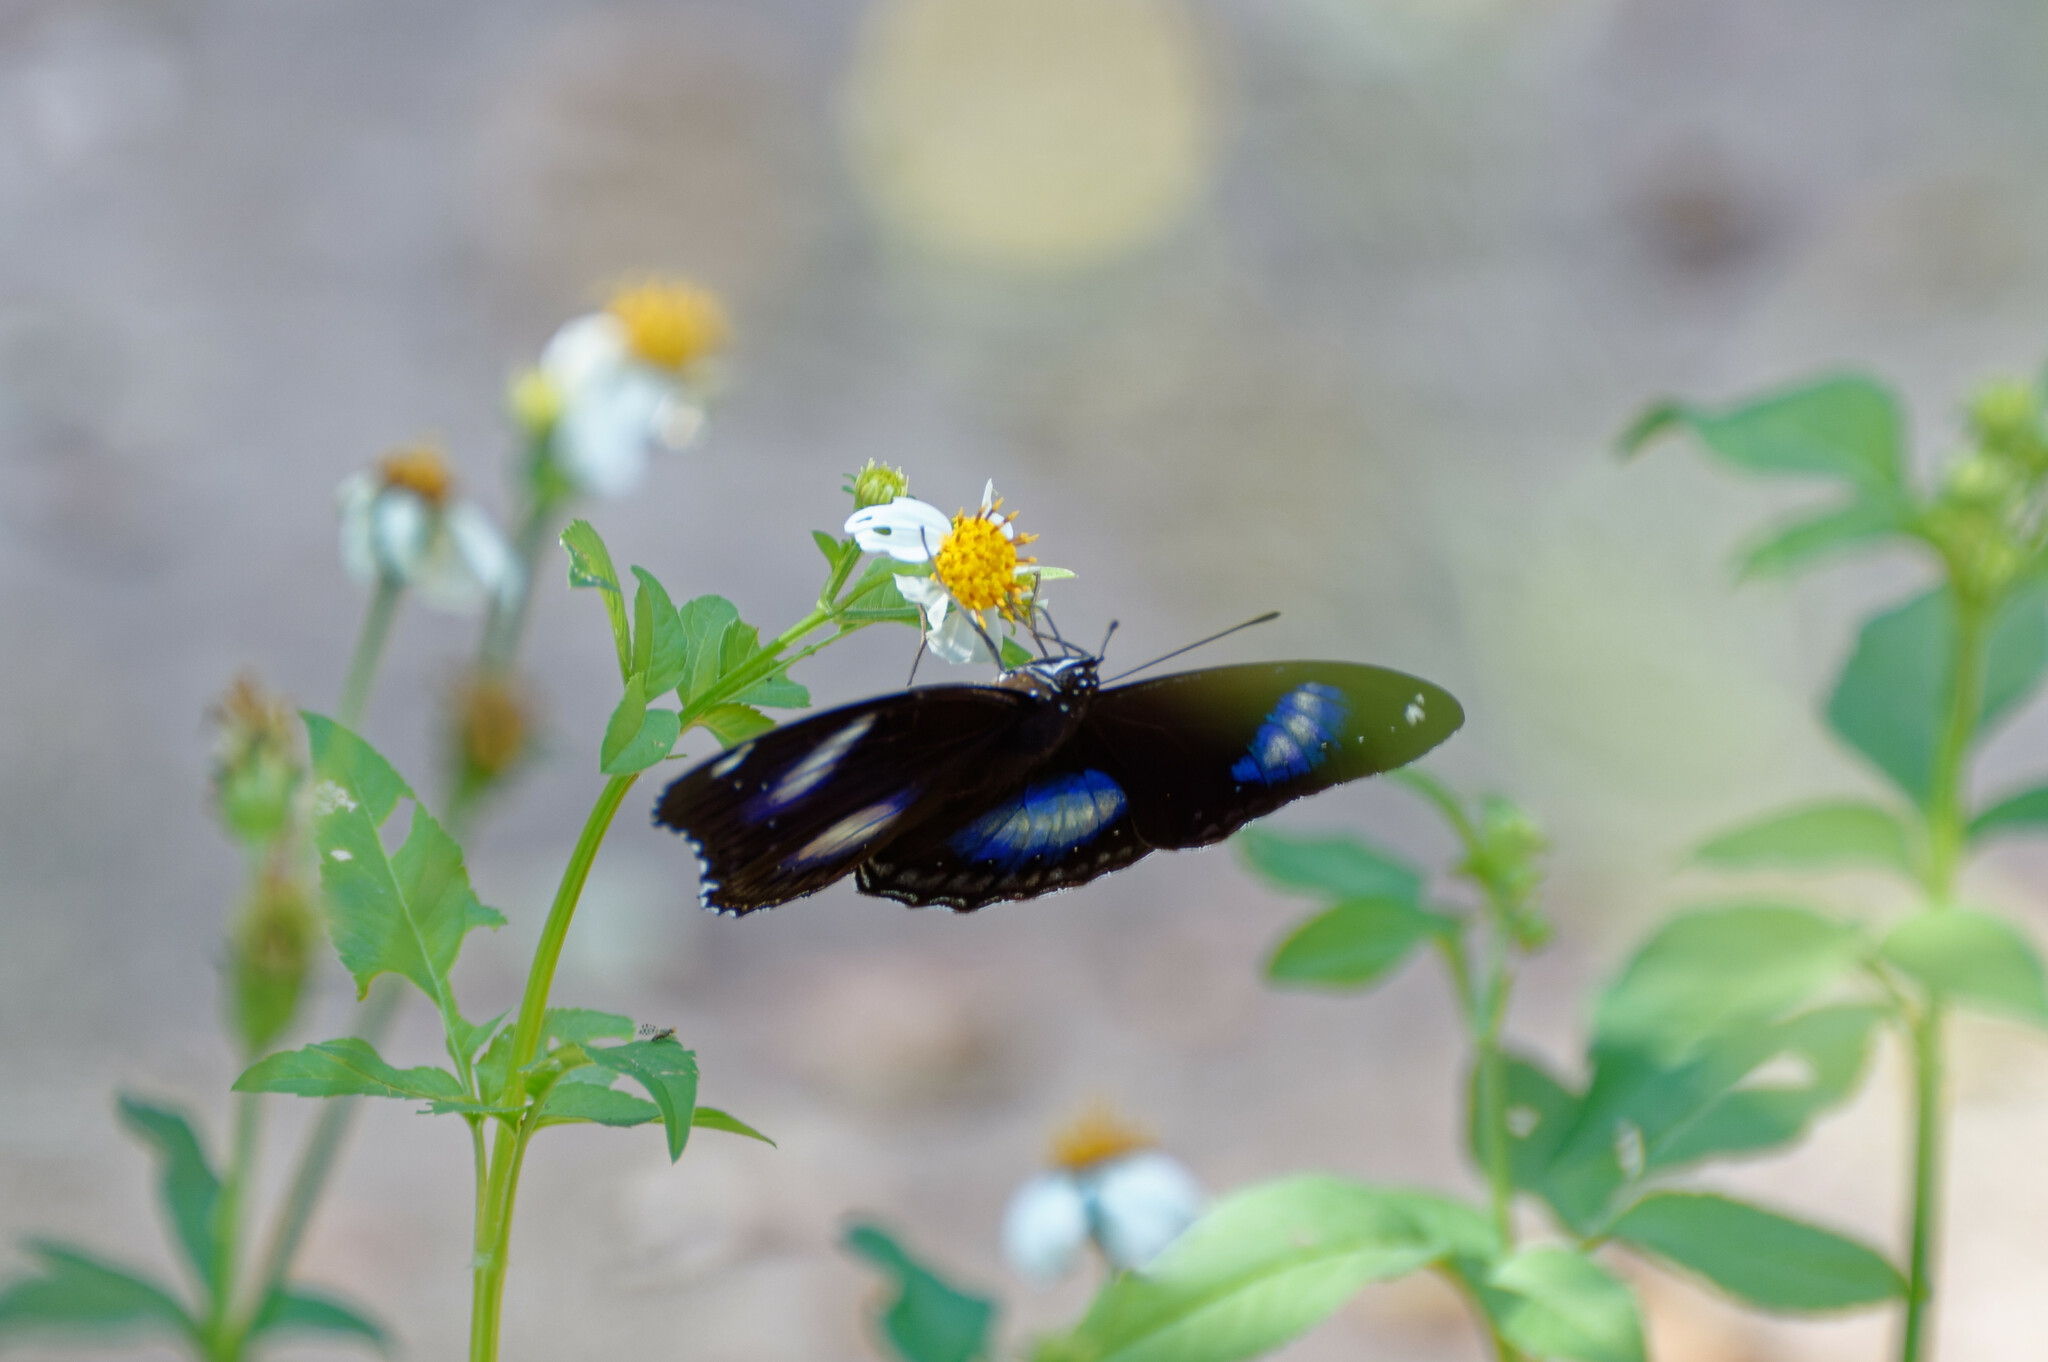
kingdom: Animalia
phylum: Arthropoda
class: Insecta
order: Lepidoptera
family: Nymphalidae
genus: Hypolimnas
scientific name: Hypolimnas bolina
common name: Great eggfly
